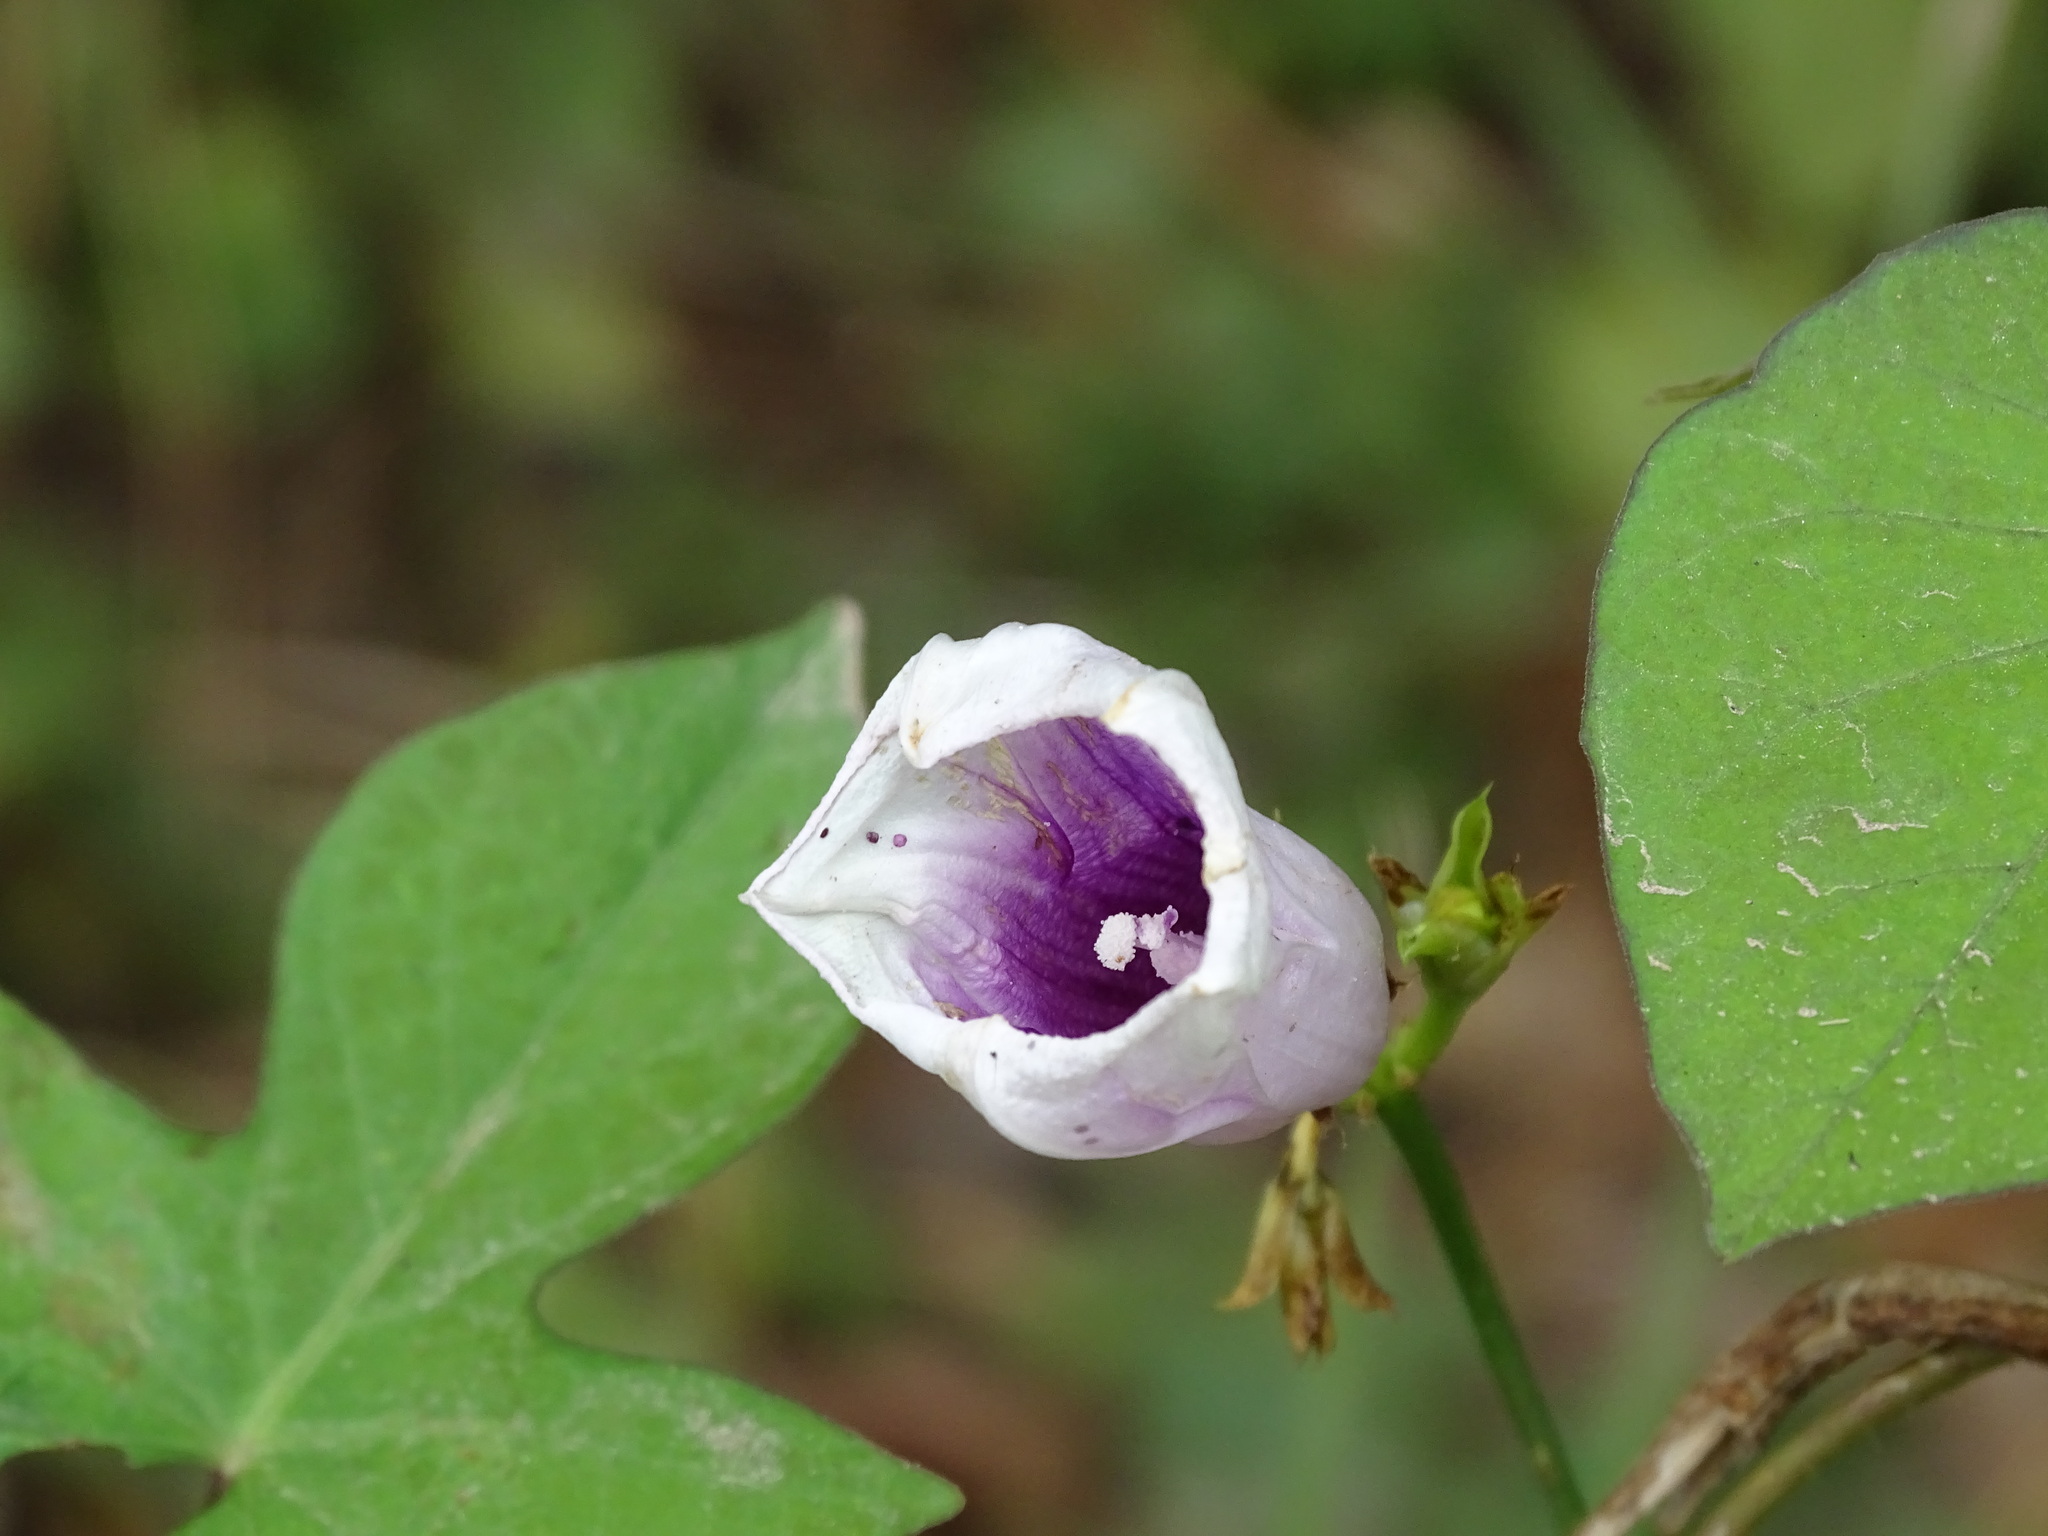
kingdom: Plantae
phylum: Tracheophyta
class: Magnoliopsida
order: Solanales
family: Convolvulaceae
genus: Ipomoea
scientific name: Ipomoea batatas
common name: Sweet-potato
